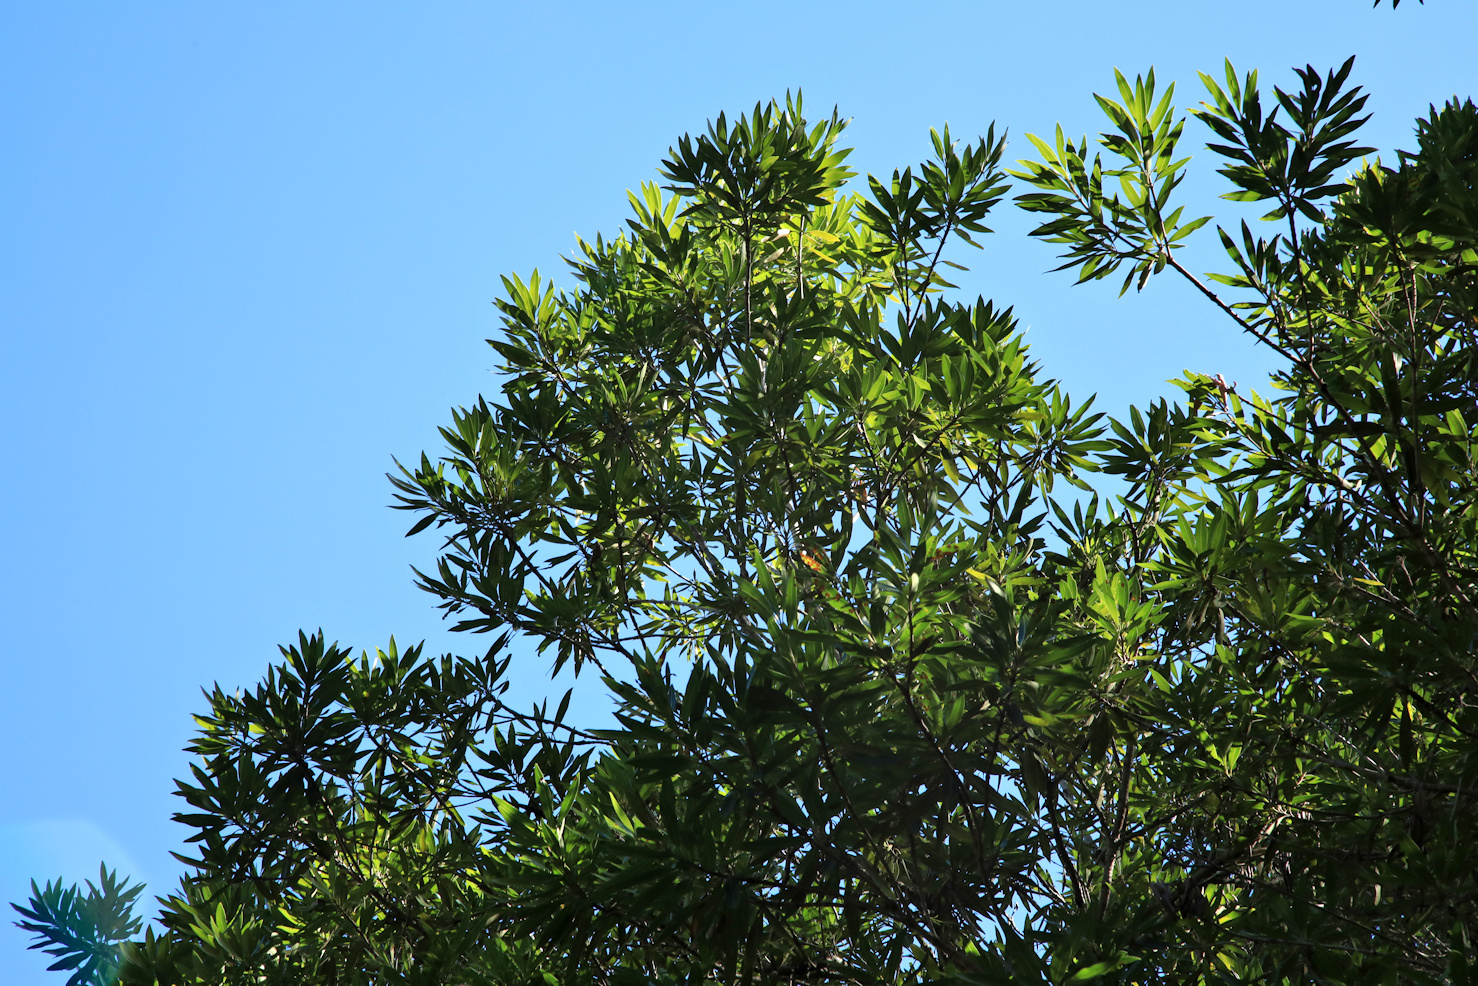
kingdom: Plantae
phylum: Tracheophyta
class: Magnoliopsida
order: Gentianales
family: Rubiaceae
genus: Breonadia
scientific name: Breonadia salicina
